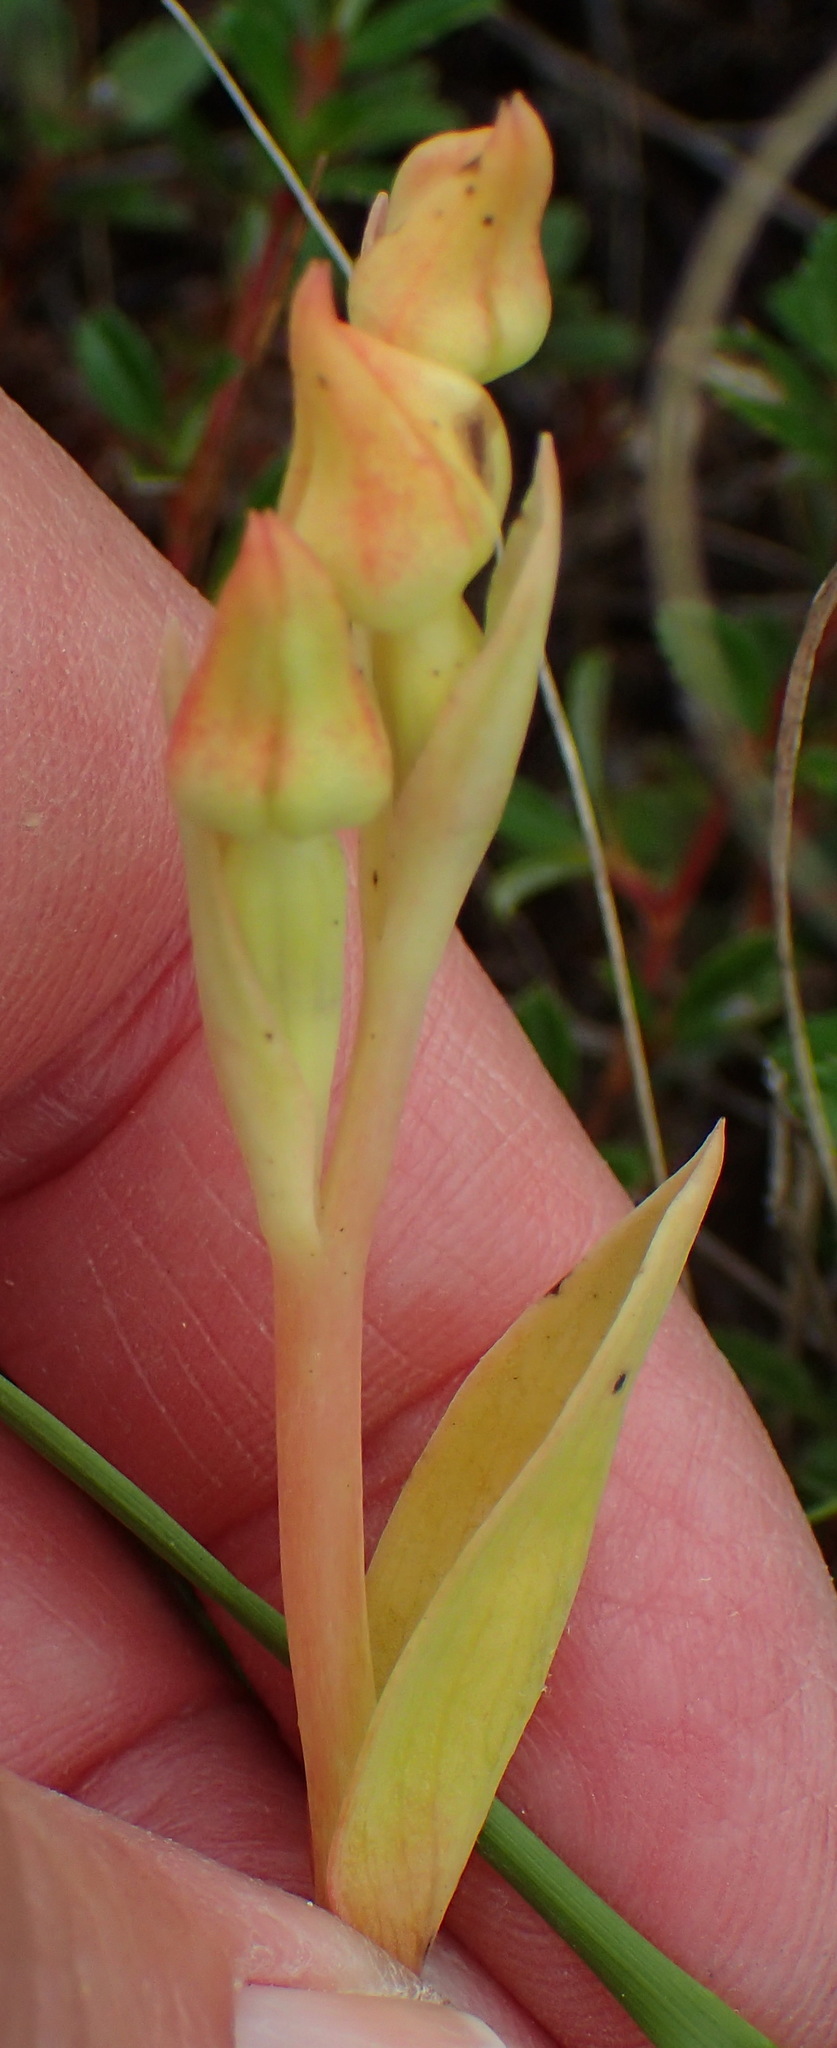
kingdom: Plantae
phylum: Tracheophyta
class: Liliopsida
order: Asparagales
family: Orchidaceae
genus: Pterygodium
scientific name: Pterygodium cleistogamum
